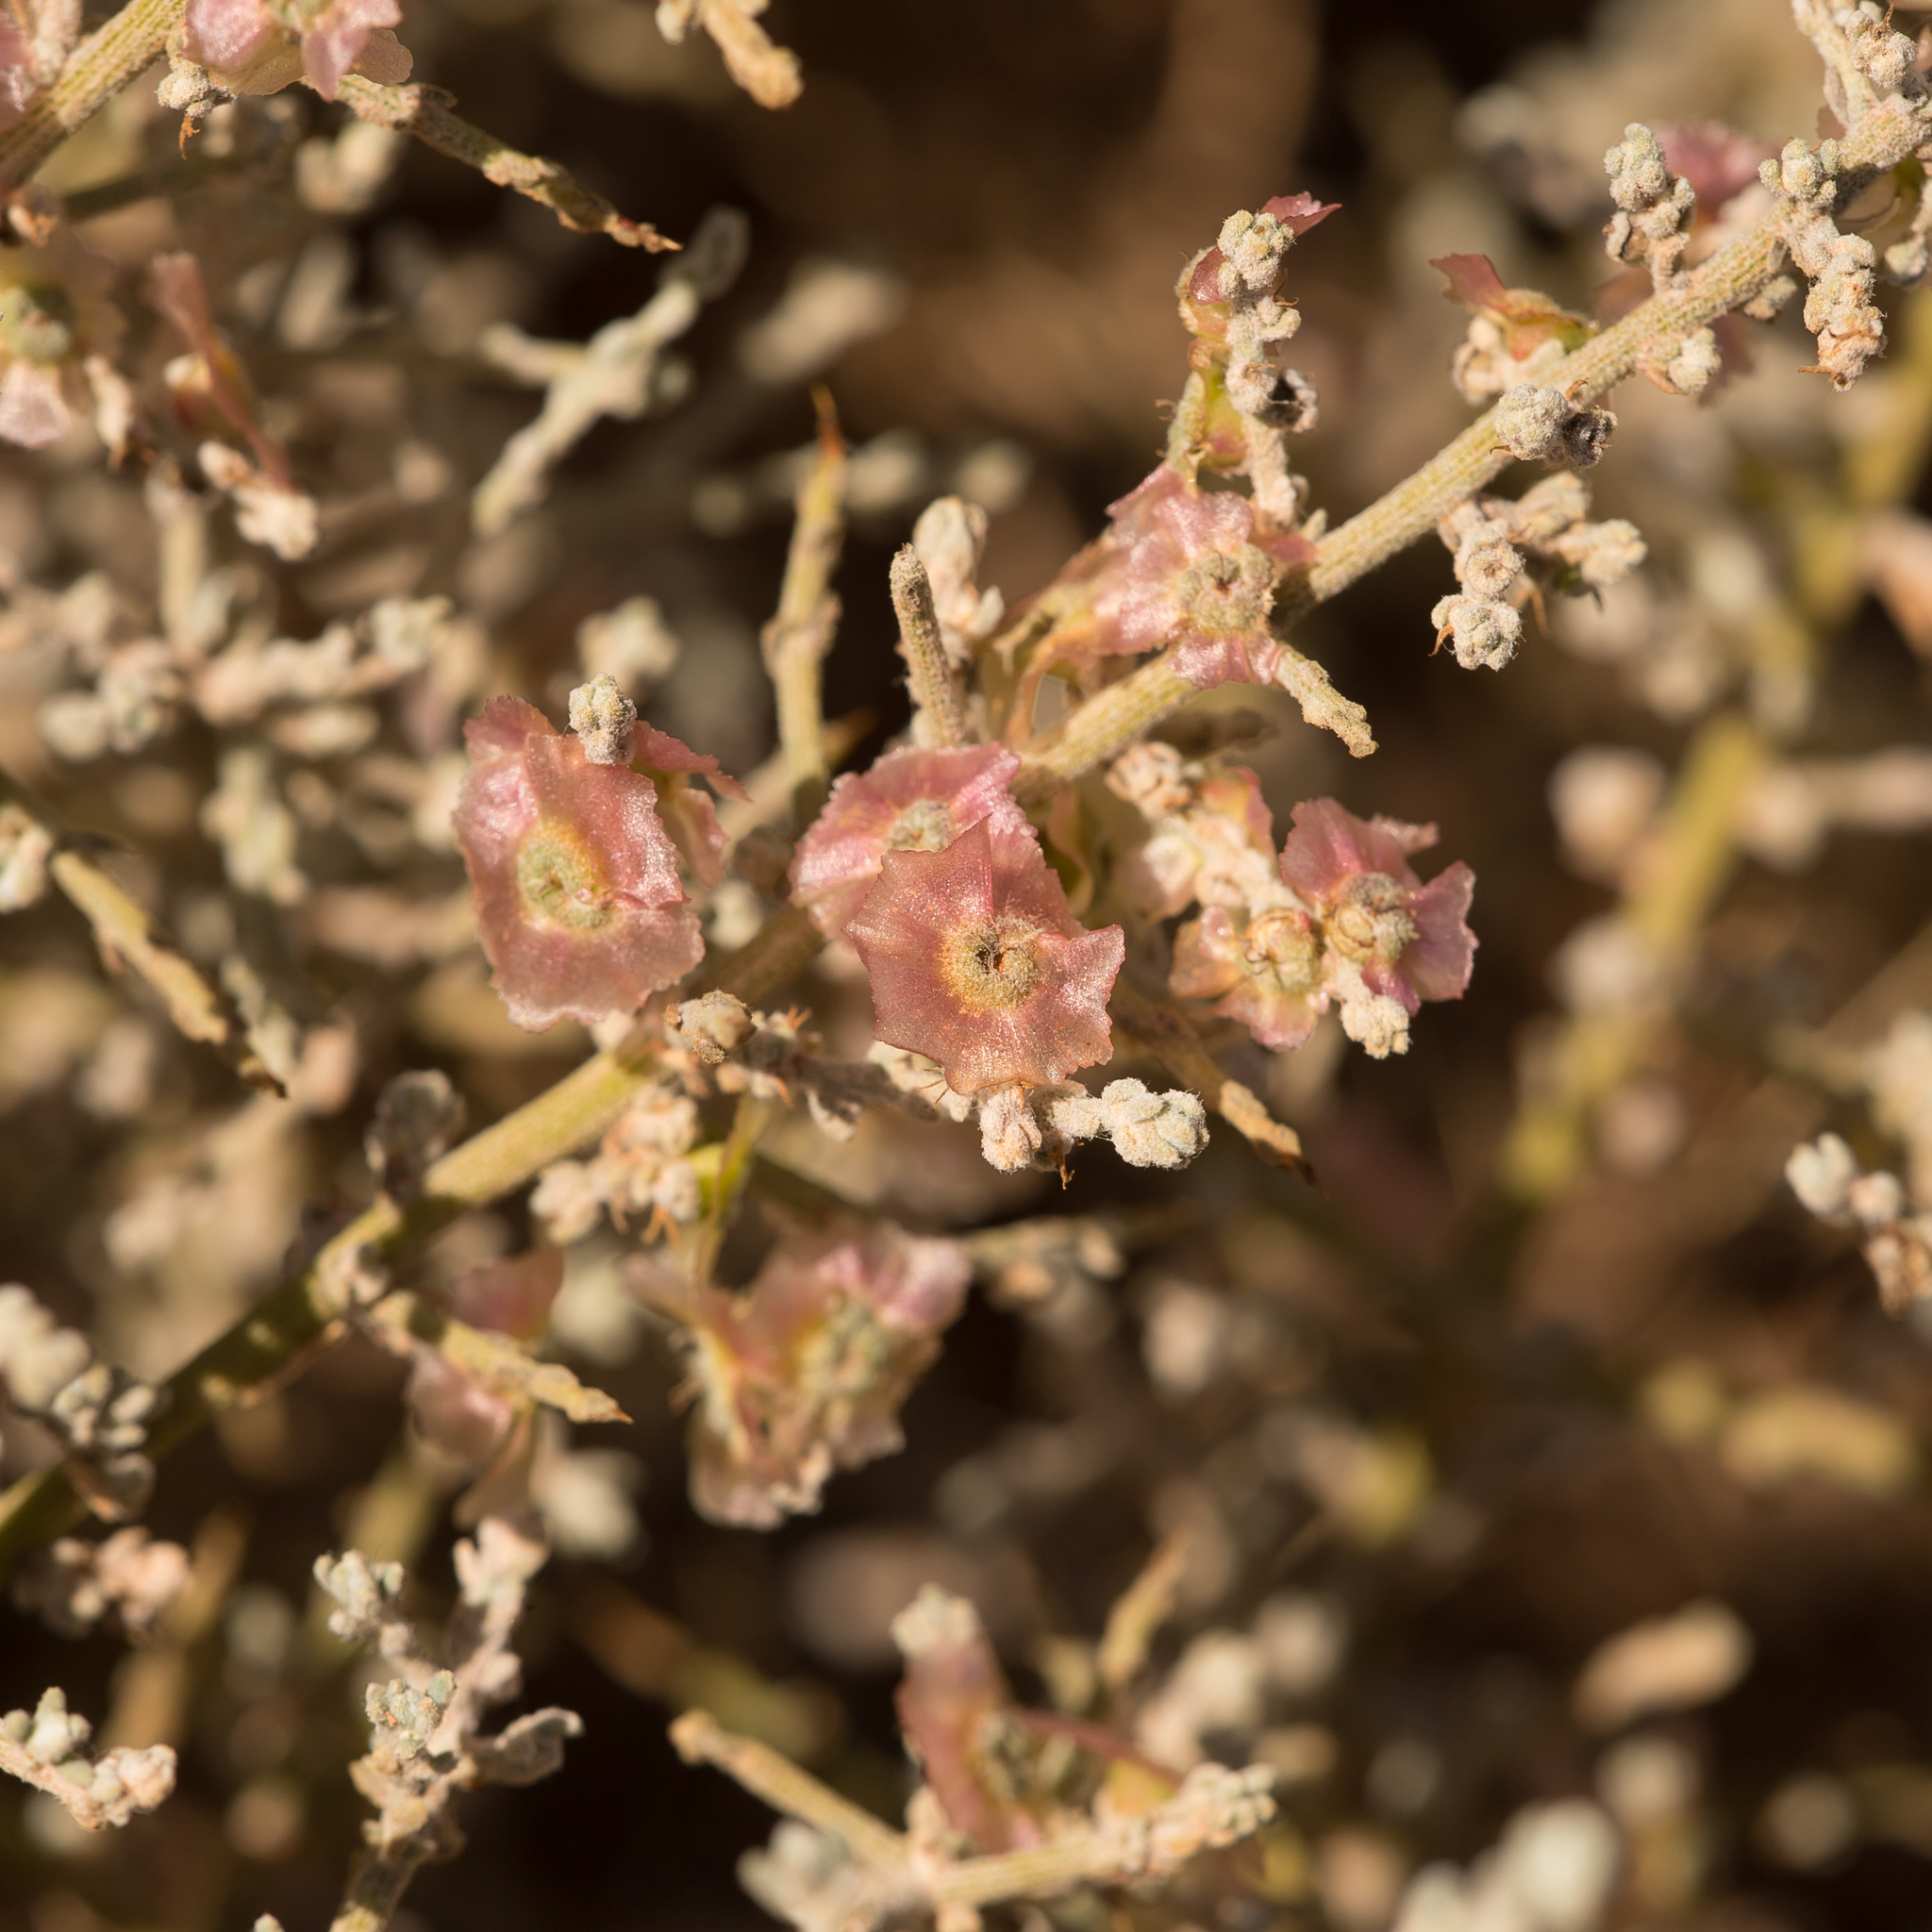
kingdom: Plantae
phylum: Tracheophyta
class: Magnoliopsida
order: Caryophyllales
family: Amaranthaceae
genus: Maireana
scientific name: Maireana aphylla
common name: Cottonbush
